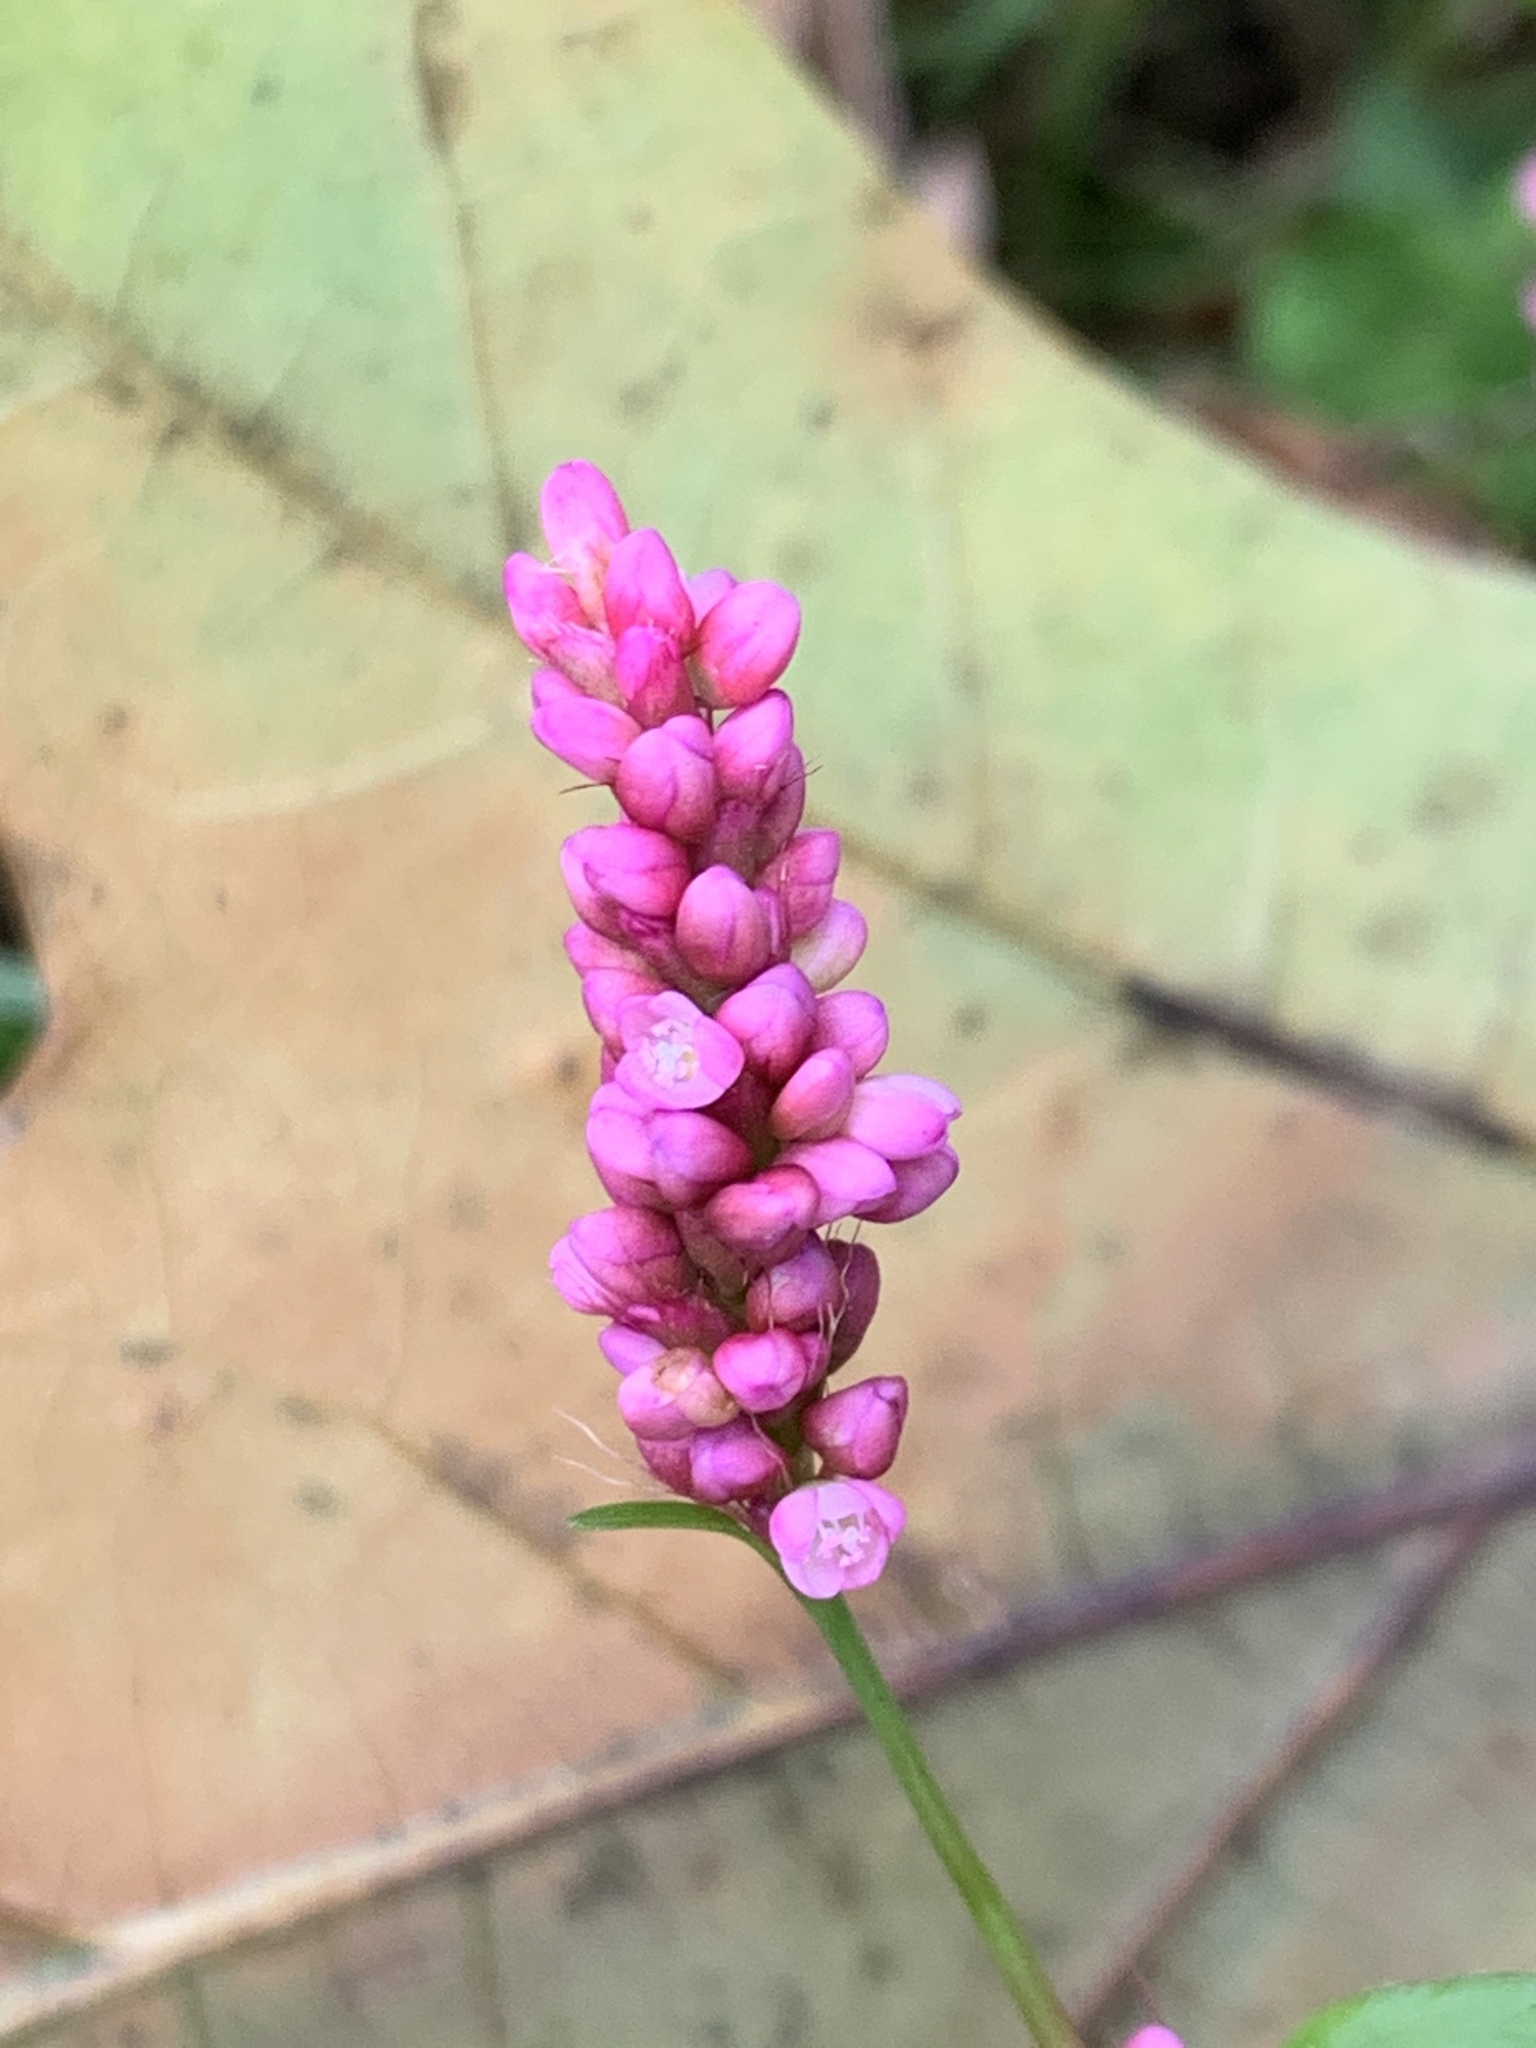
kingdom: Plantae
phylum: Tracheophyta
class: Magnoliopsida
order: Caryophyllales
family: Polygonaceae
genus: Persicaria
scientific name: Persicaria longiseta
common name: Bristly lady's-thumb
